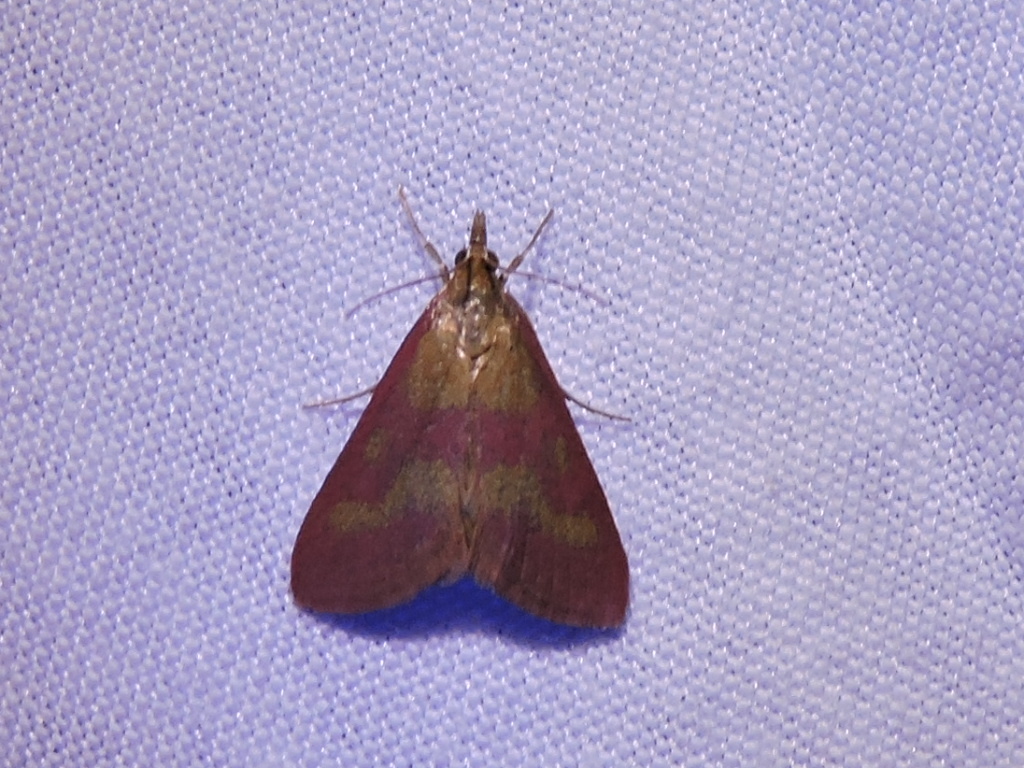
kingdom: Animalia
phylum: Arthropoda
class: Insecta
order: Lepidoptera
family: Crambidae
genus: Pyrausta
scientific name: Pyrausta laticlavia
